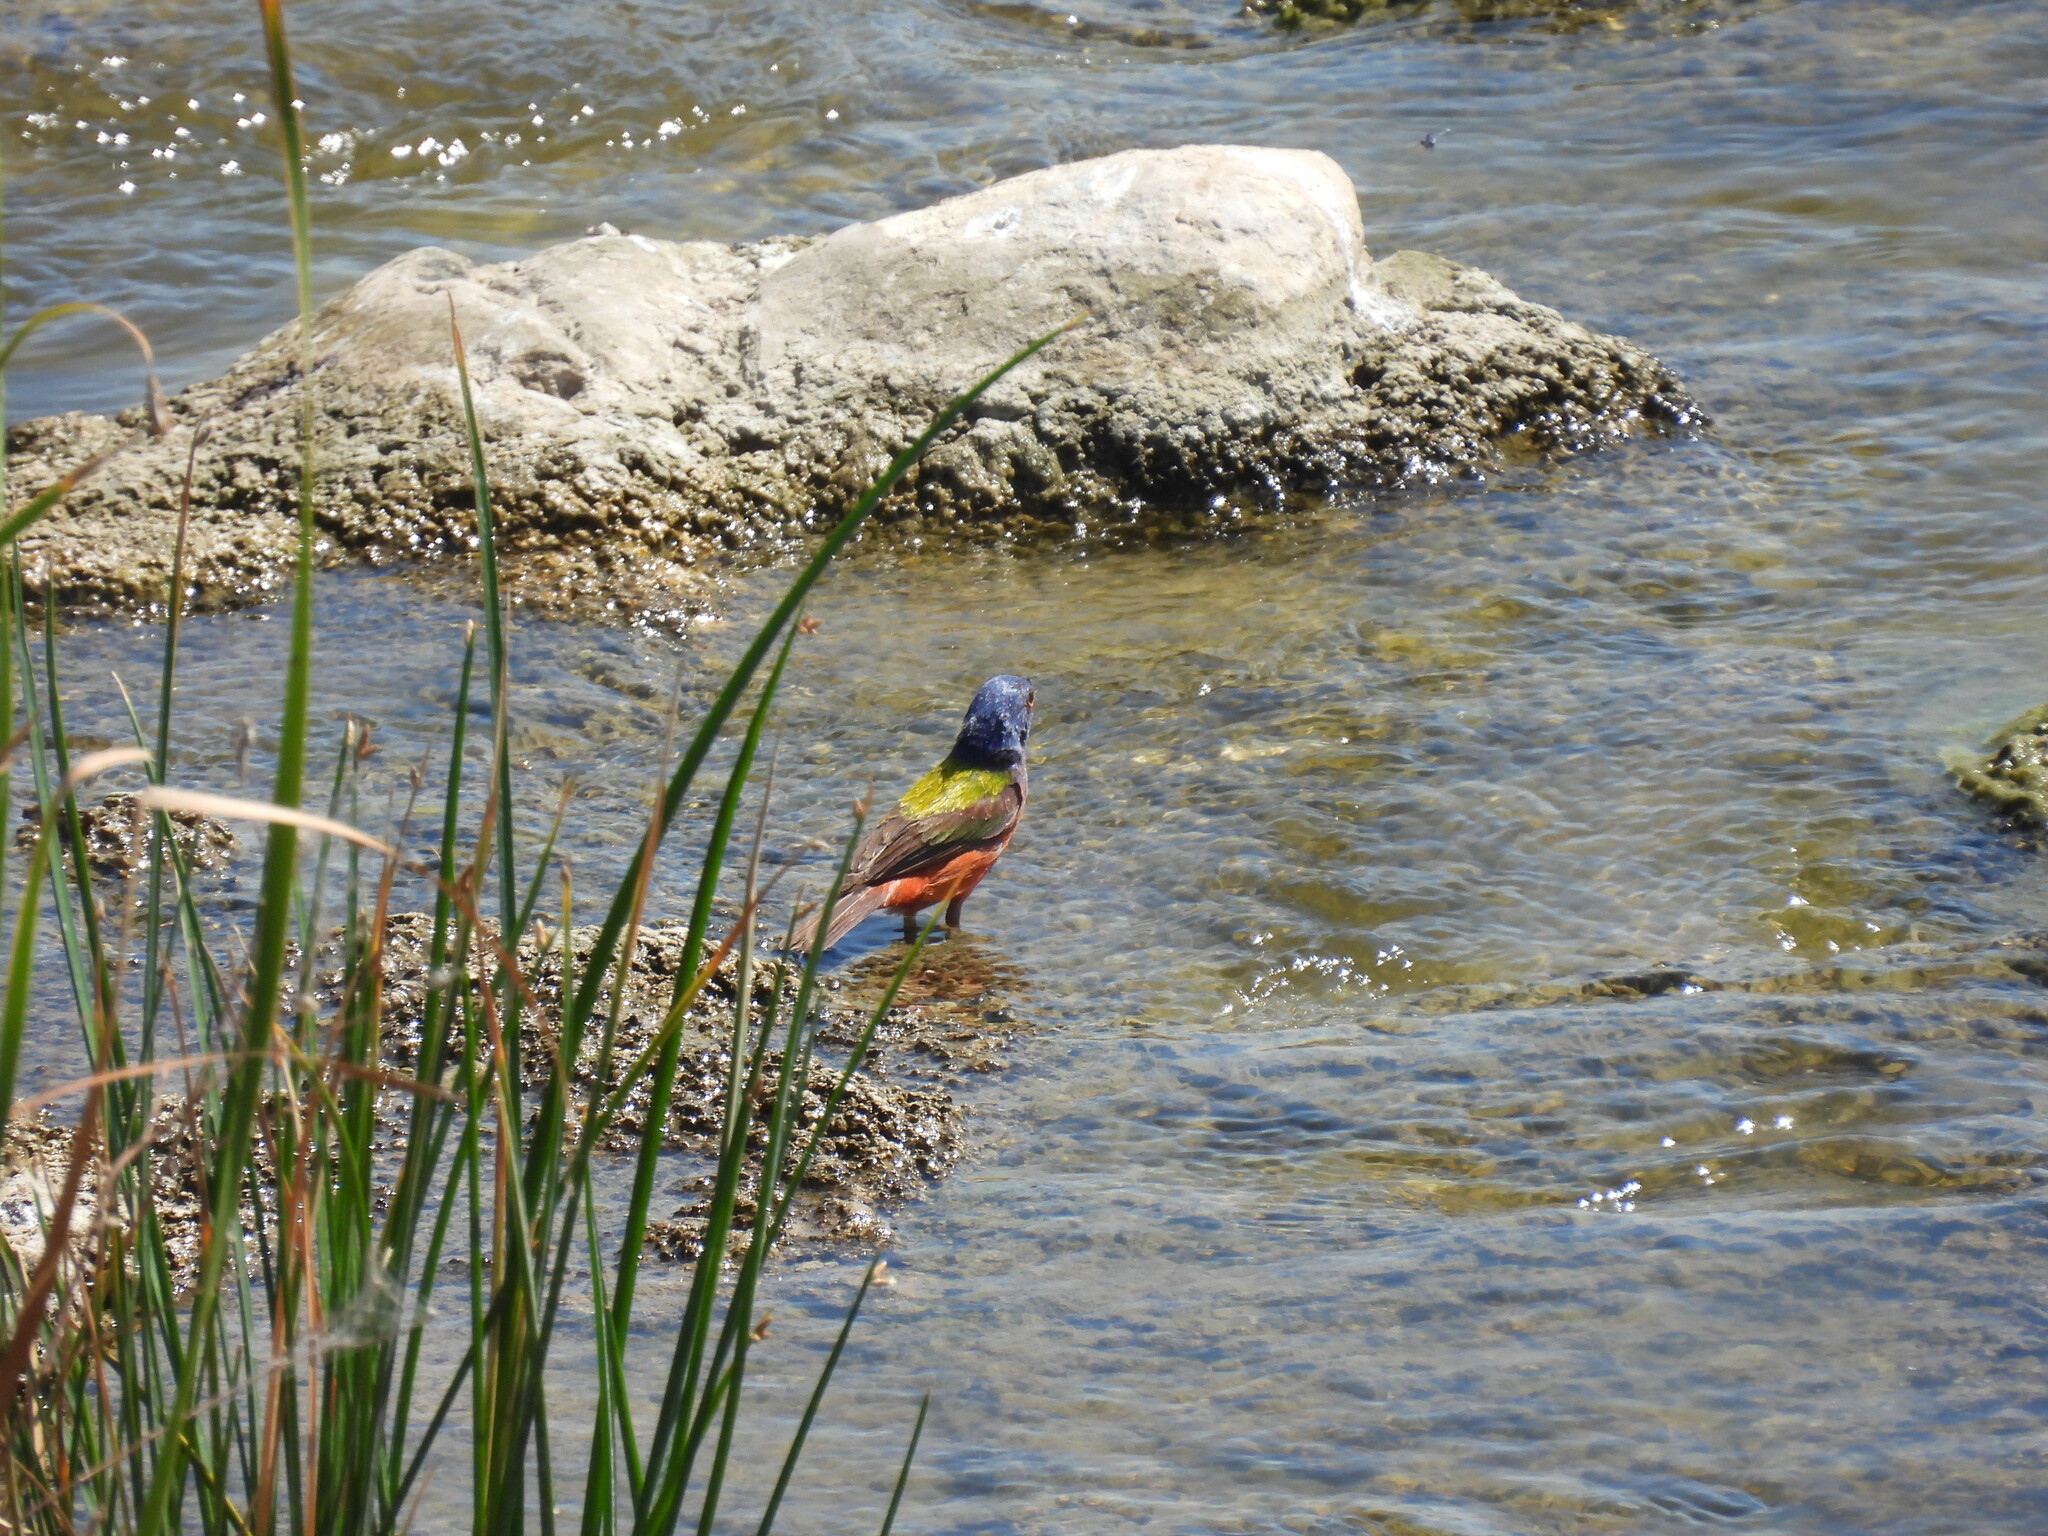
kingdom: Animalia
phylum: Chordata
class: Aves
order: Passeriformes
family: Cardinalidae
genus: Passerina
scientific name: Passerina ciris
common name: Painted bunting
